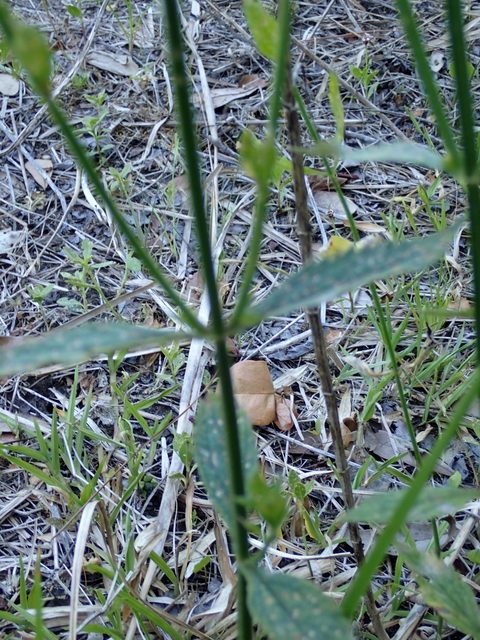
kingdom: Plantae
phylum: Tracheophyta
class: Magnoliopsida
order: Lamiales
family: Verbenaceae
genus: Verbena
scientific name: Verbena brasiliensis
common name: Brazilian vervain
